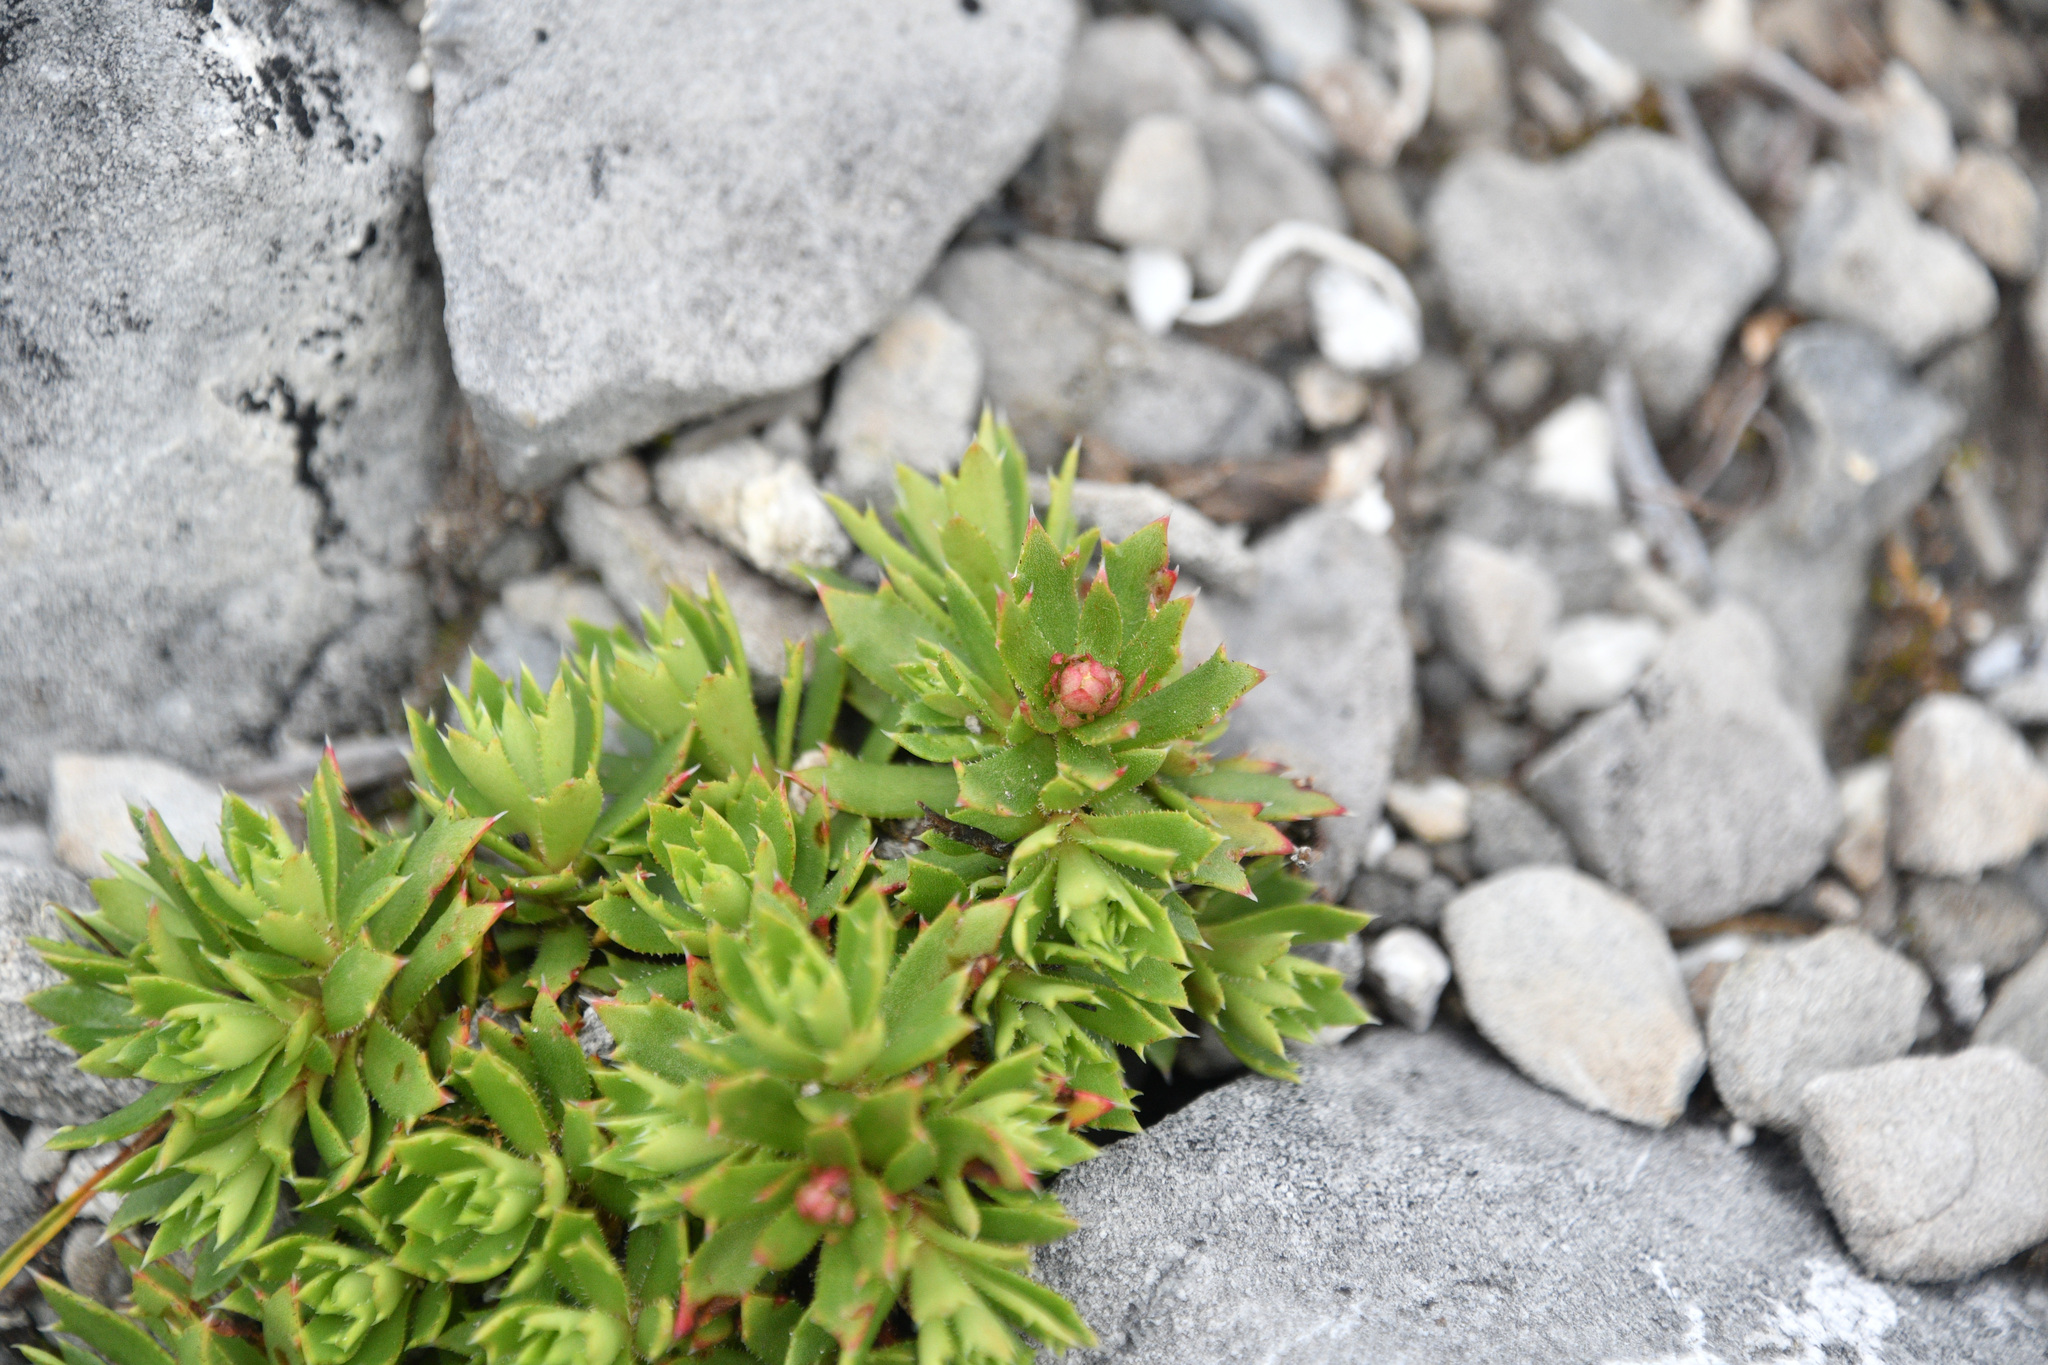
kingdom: Plantae
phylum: Tracheophyta
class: Magnoliopsida
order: Saxifragales
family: Saxifragaceae
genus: Saxifraga
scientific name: Saxifraga tricuspidata
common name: Prickly saxifrage
